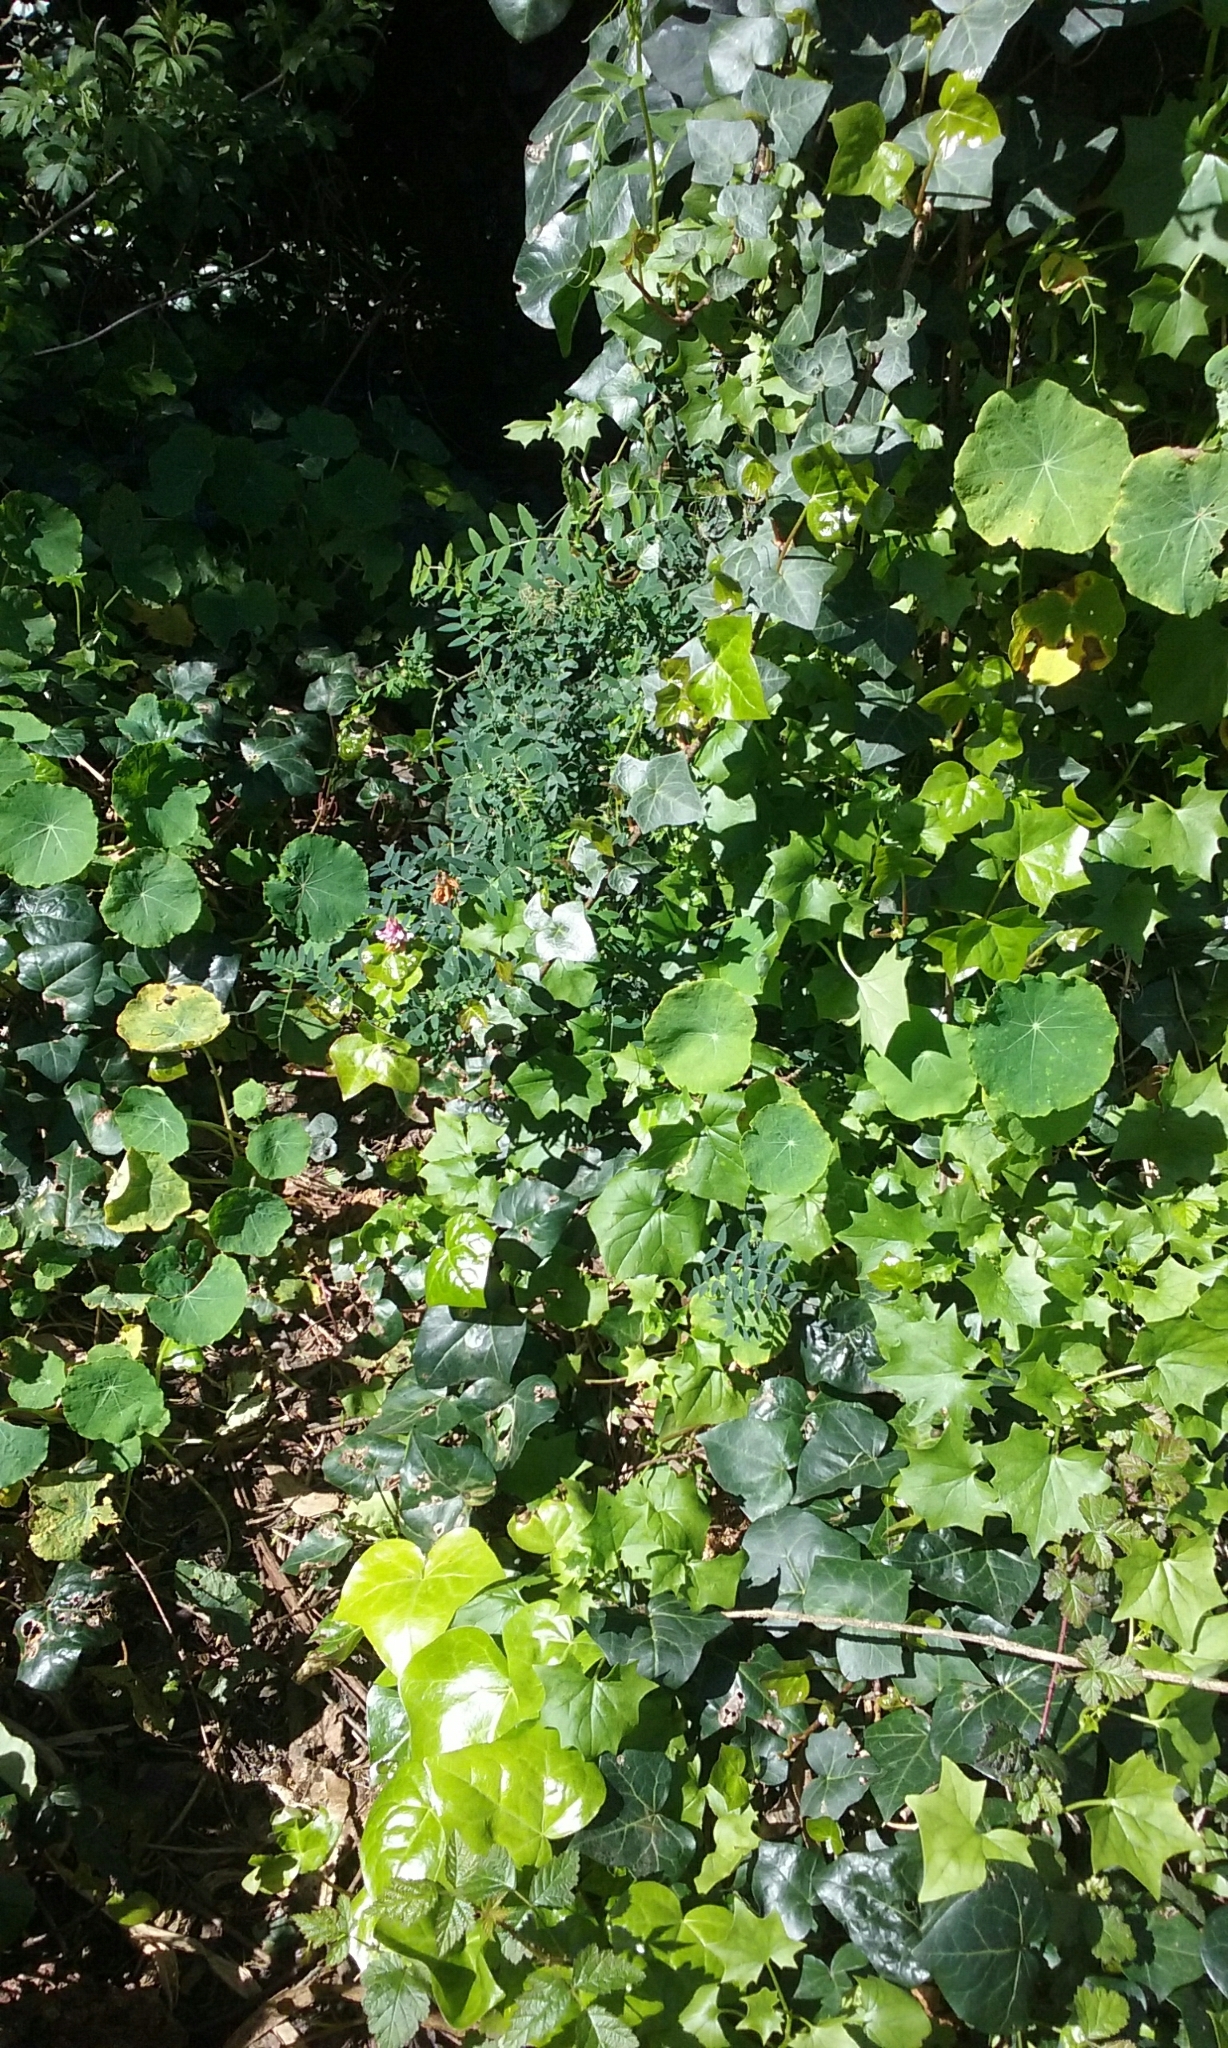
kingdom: Plantae
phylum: Tracheophyta
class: Magnoliopsida
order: Fabales
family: Fabaceae
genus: Lathyrus
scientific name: Lathyrus vestitus
